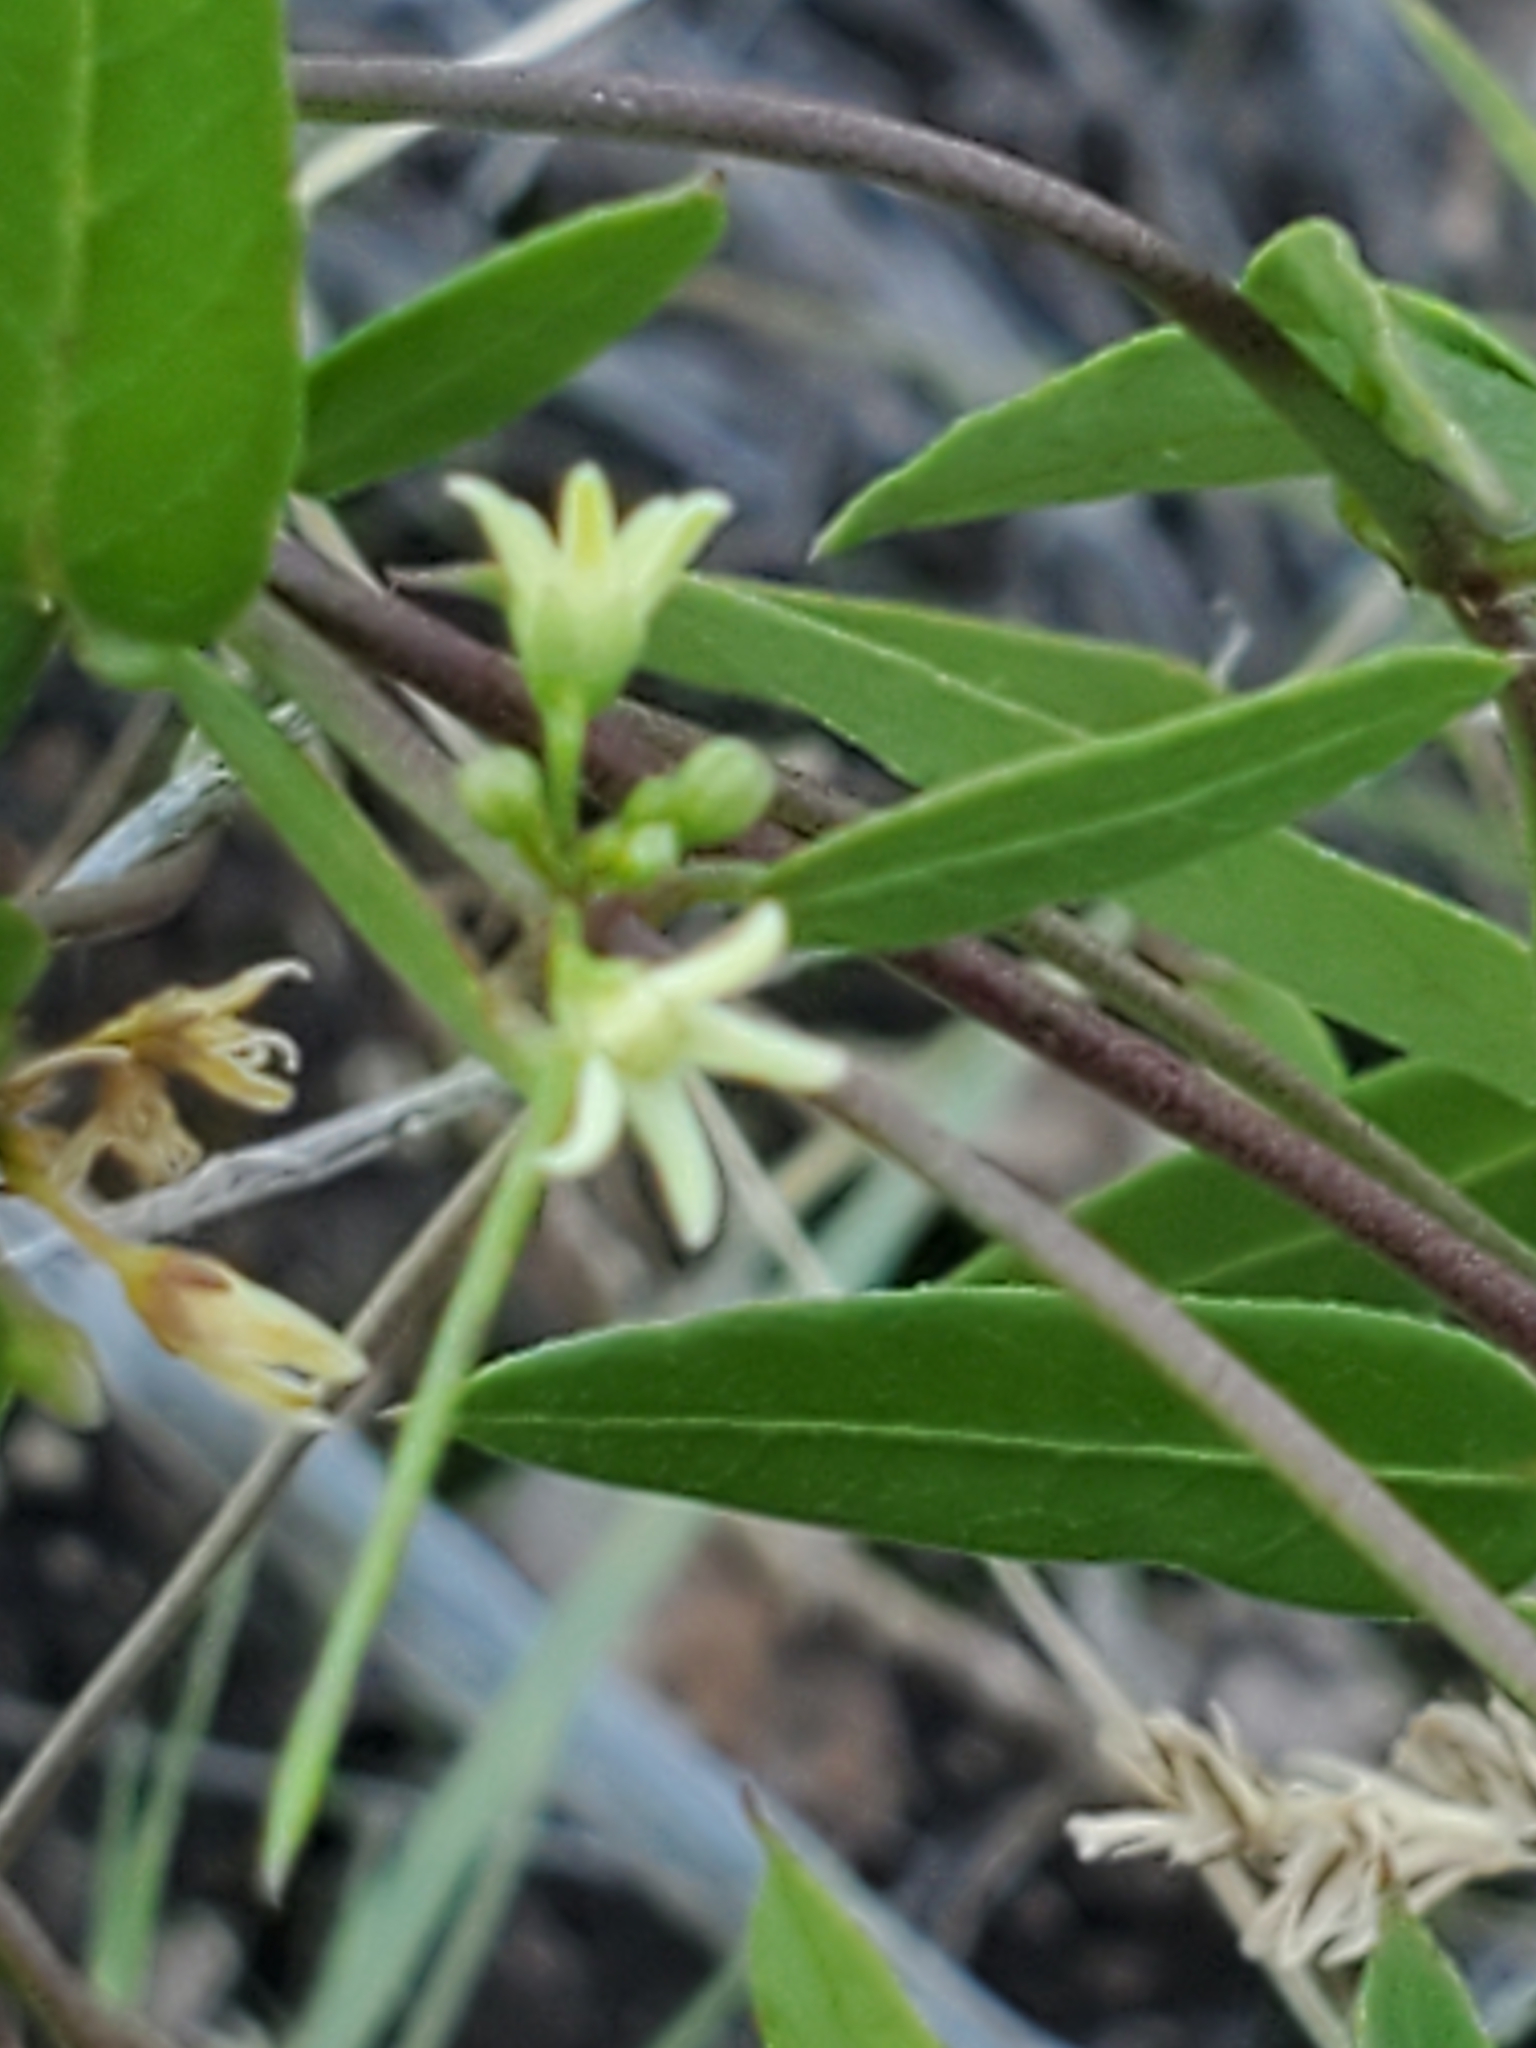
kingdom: Plantae
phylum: Tracheophyta
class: Magnoliopsida
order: Gentianales
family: Apocynaceae
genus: Metastelma
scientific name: Metastelma palmeri
